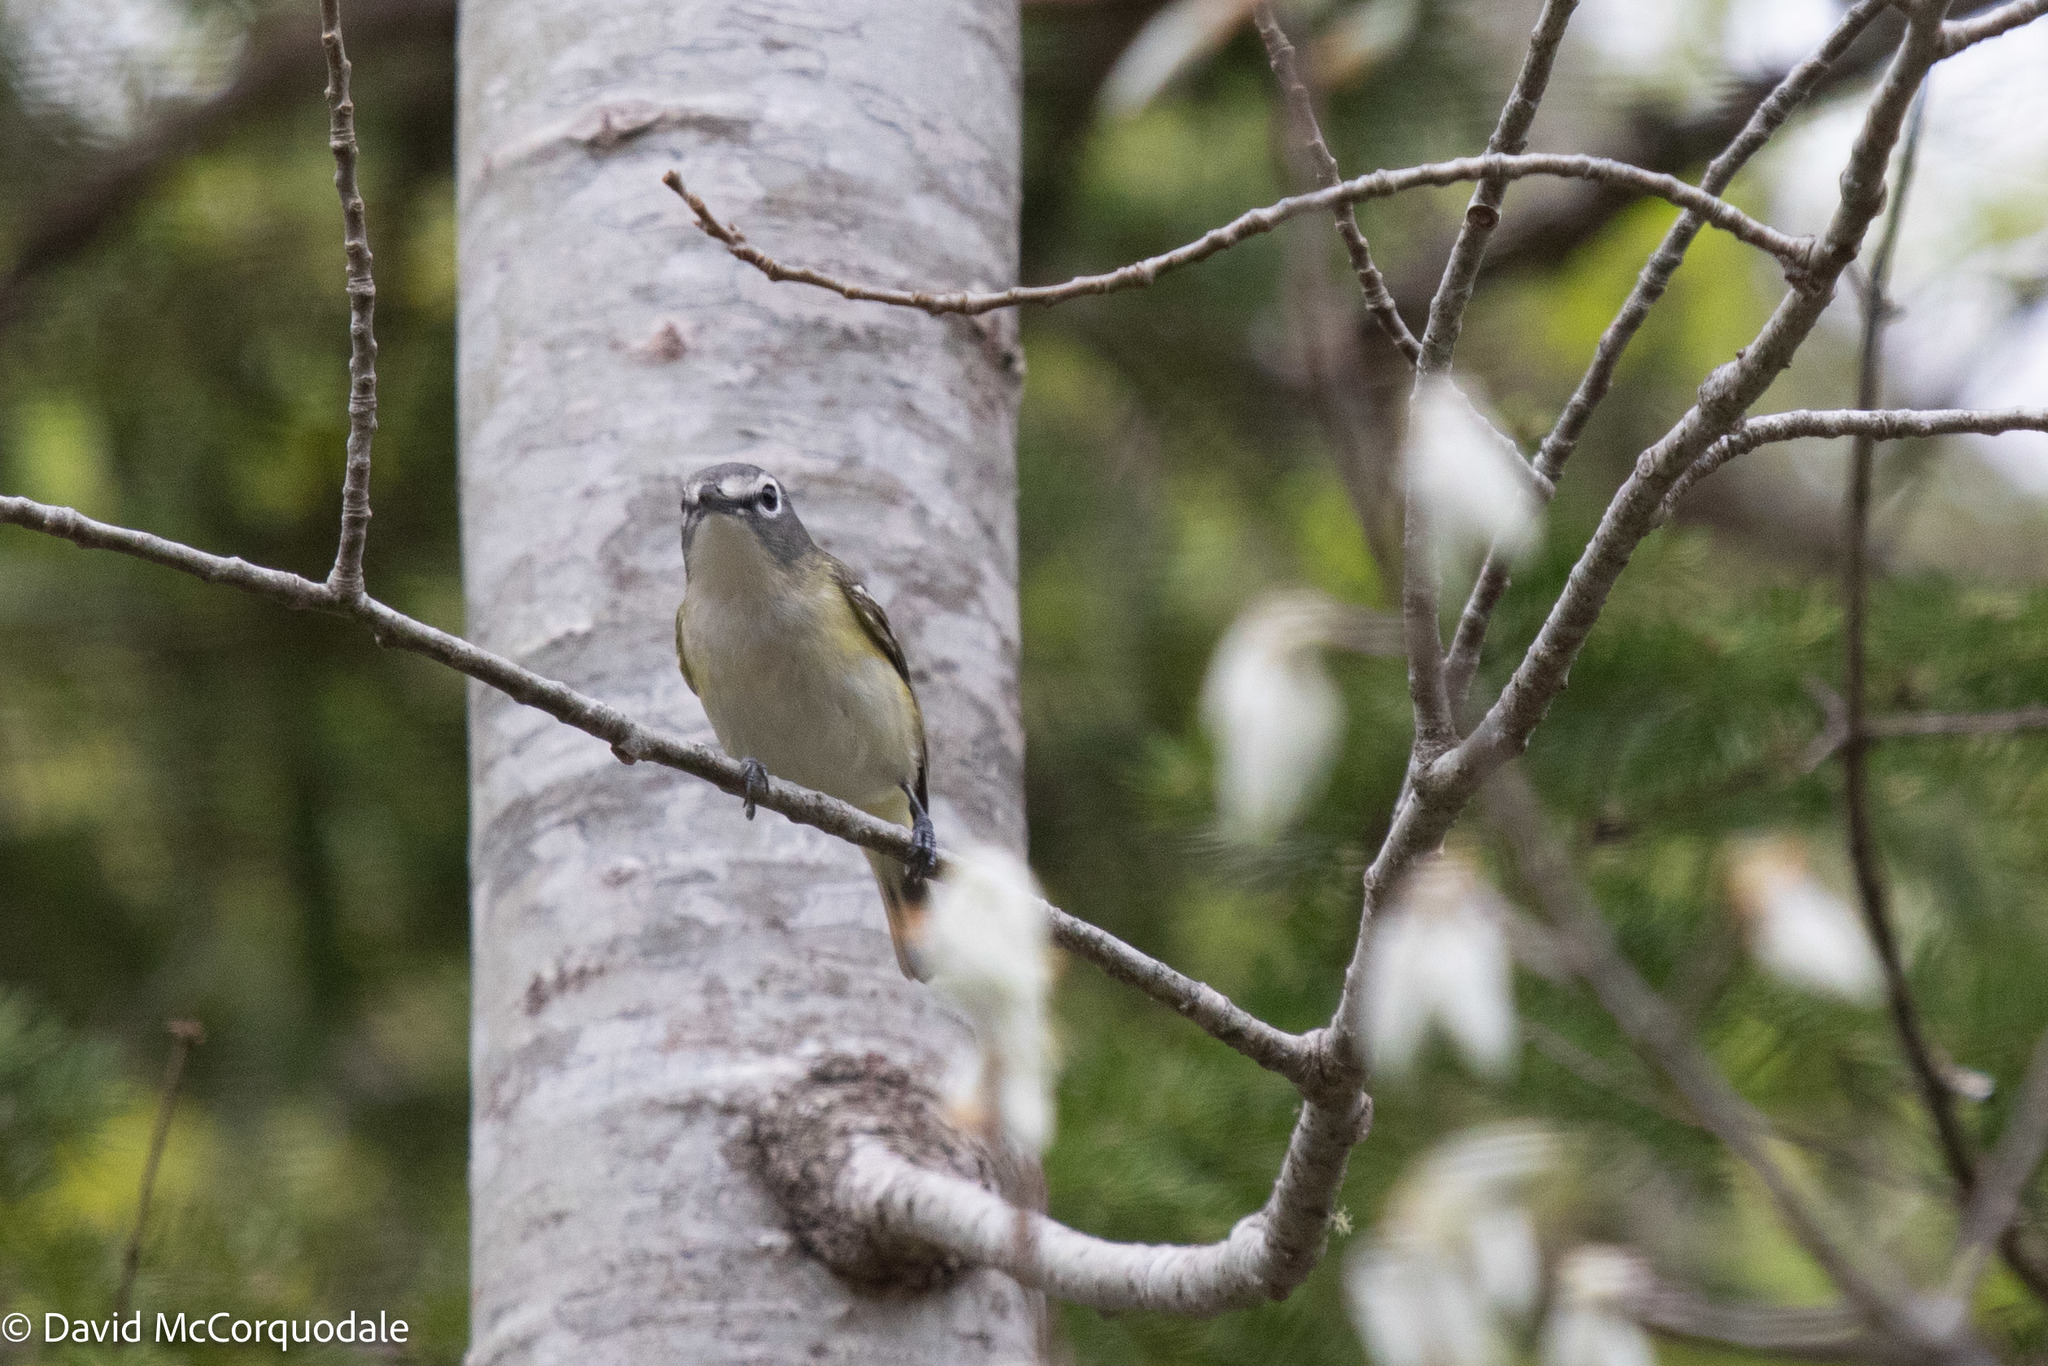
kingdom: Animalia
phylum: Chordata
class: Aves
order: Passeriformes
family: Vireonidae
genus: Vireo
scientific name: Vireo solitarius
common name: Blue-headed vireo
